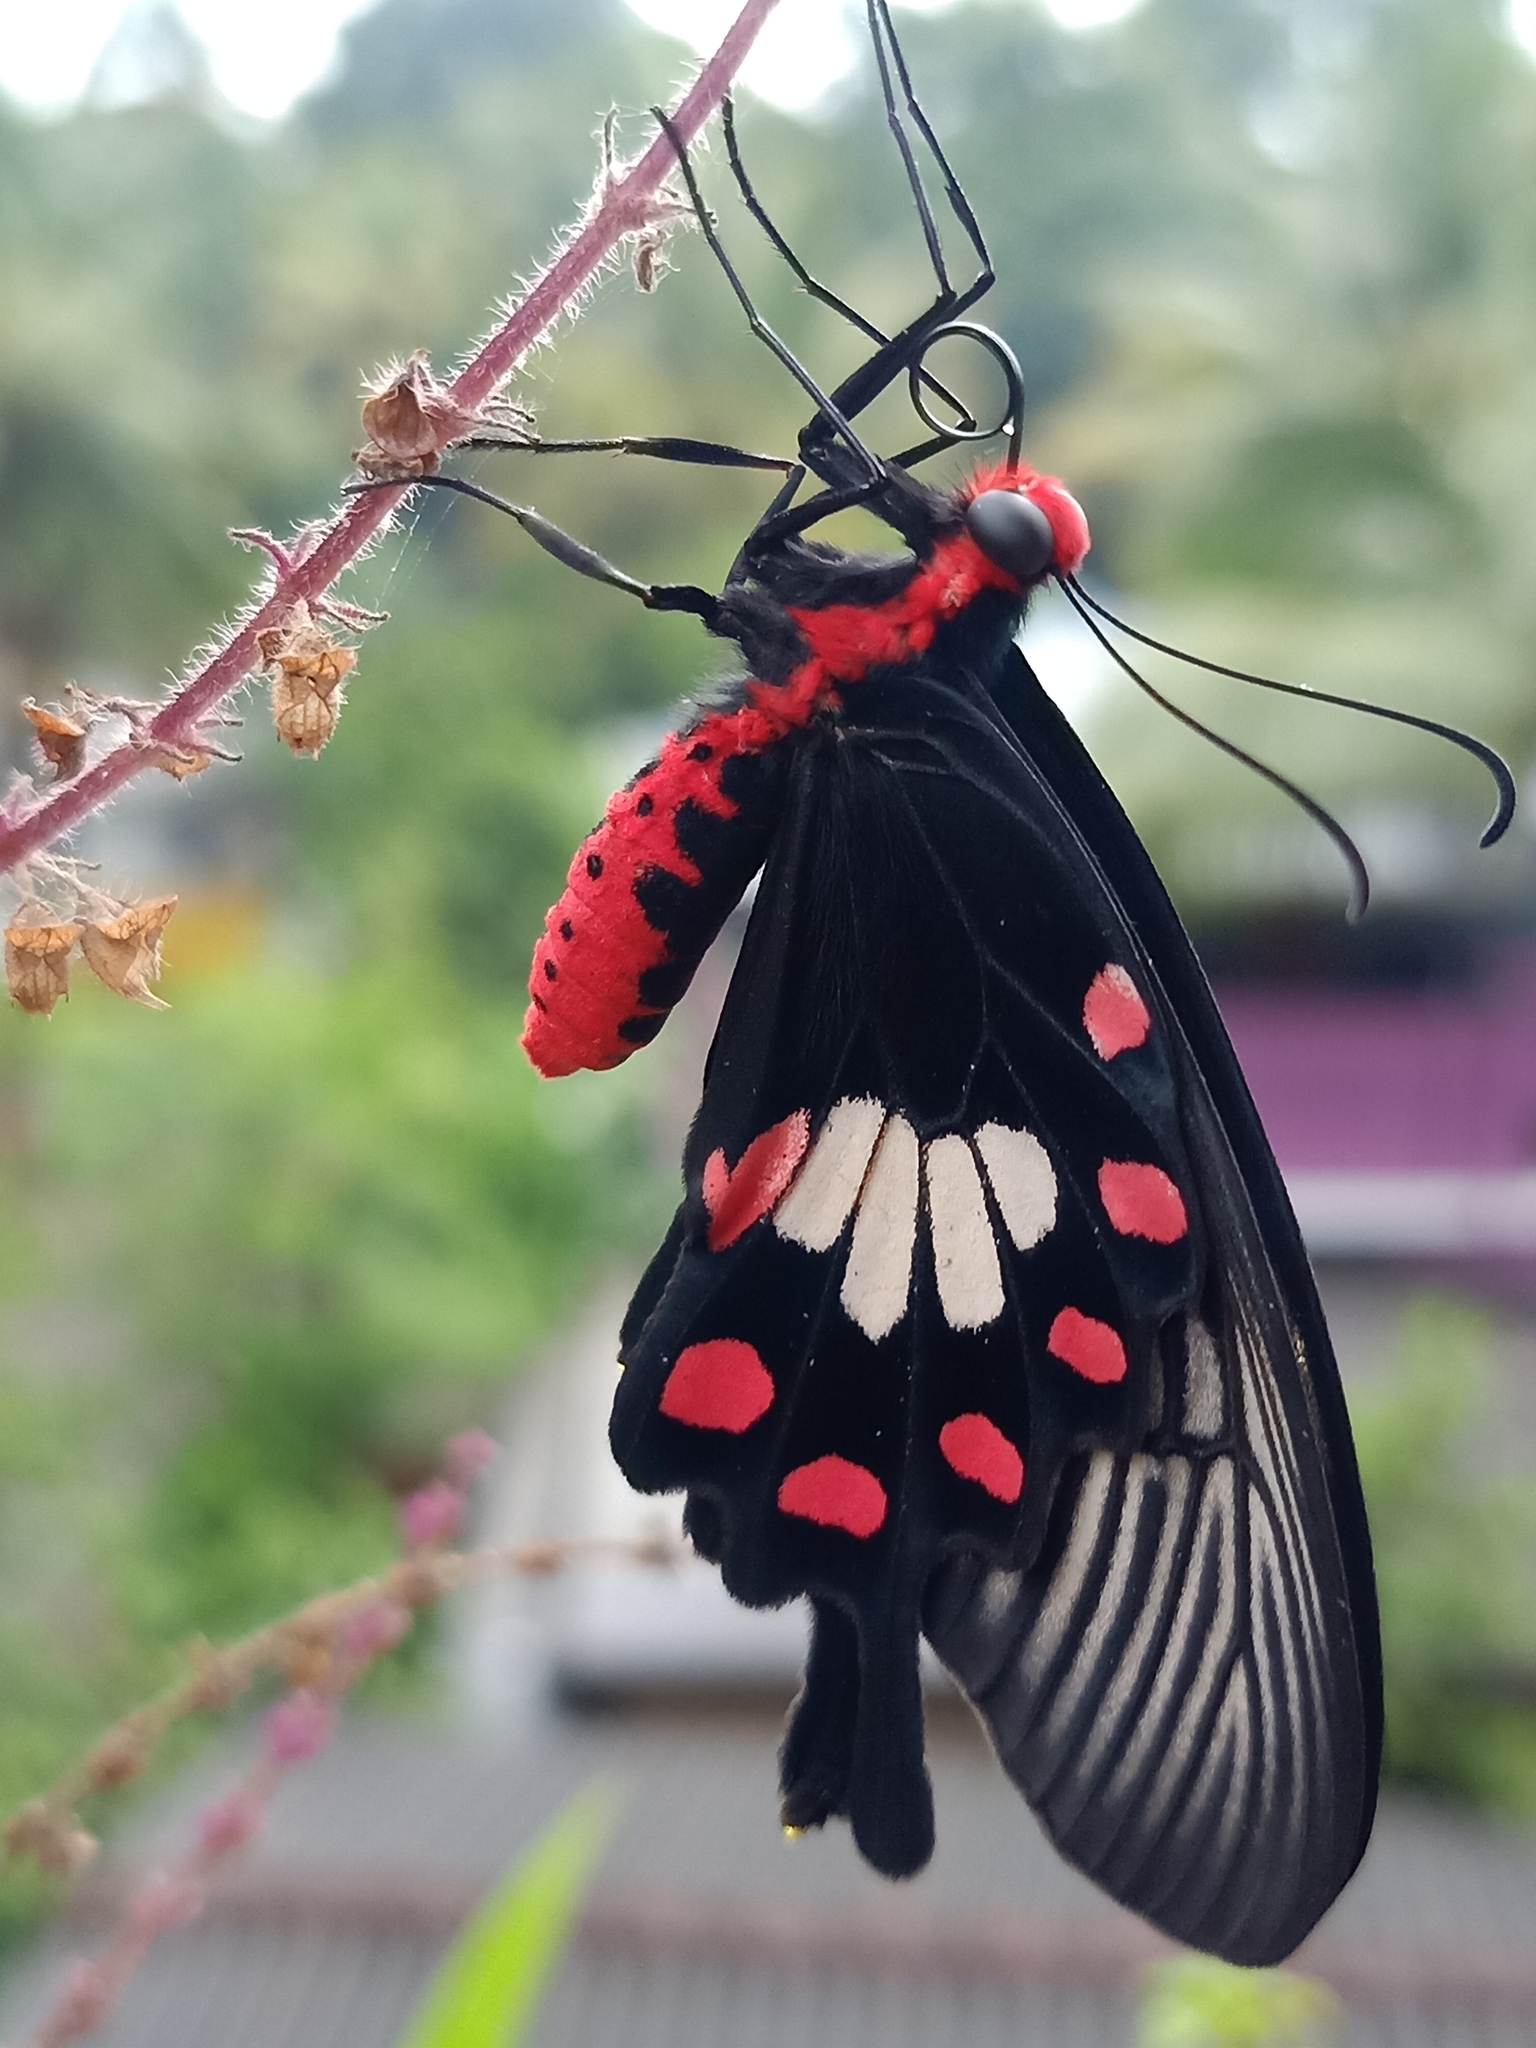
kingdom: Animalia
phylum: Arthropoda
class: Insecta
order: Lepidoptera
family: Papilionidae
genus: Pachliopta
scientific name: Pachliopta aristolochiae
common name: Common rose
